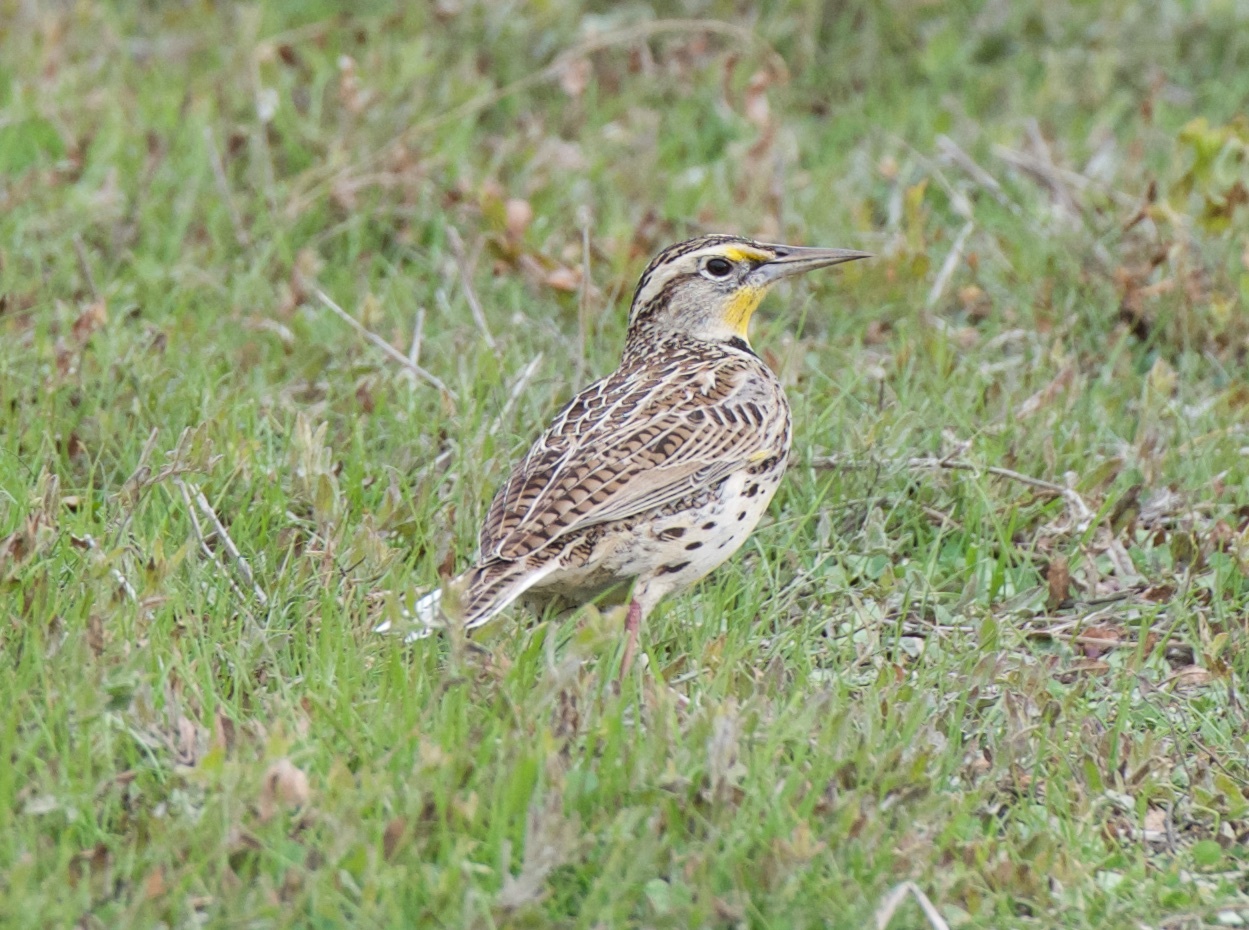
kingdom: Animalia
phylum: Chordata
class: Aves
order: Passeriformes
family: Icteridae
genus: Sturnella
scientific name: Sturnella neglecta
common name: Western meadowlark
